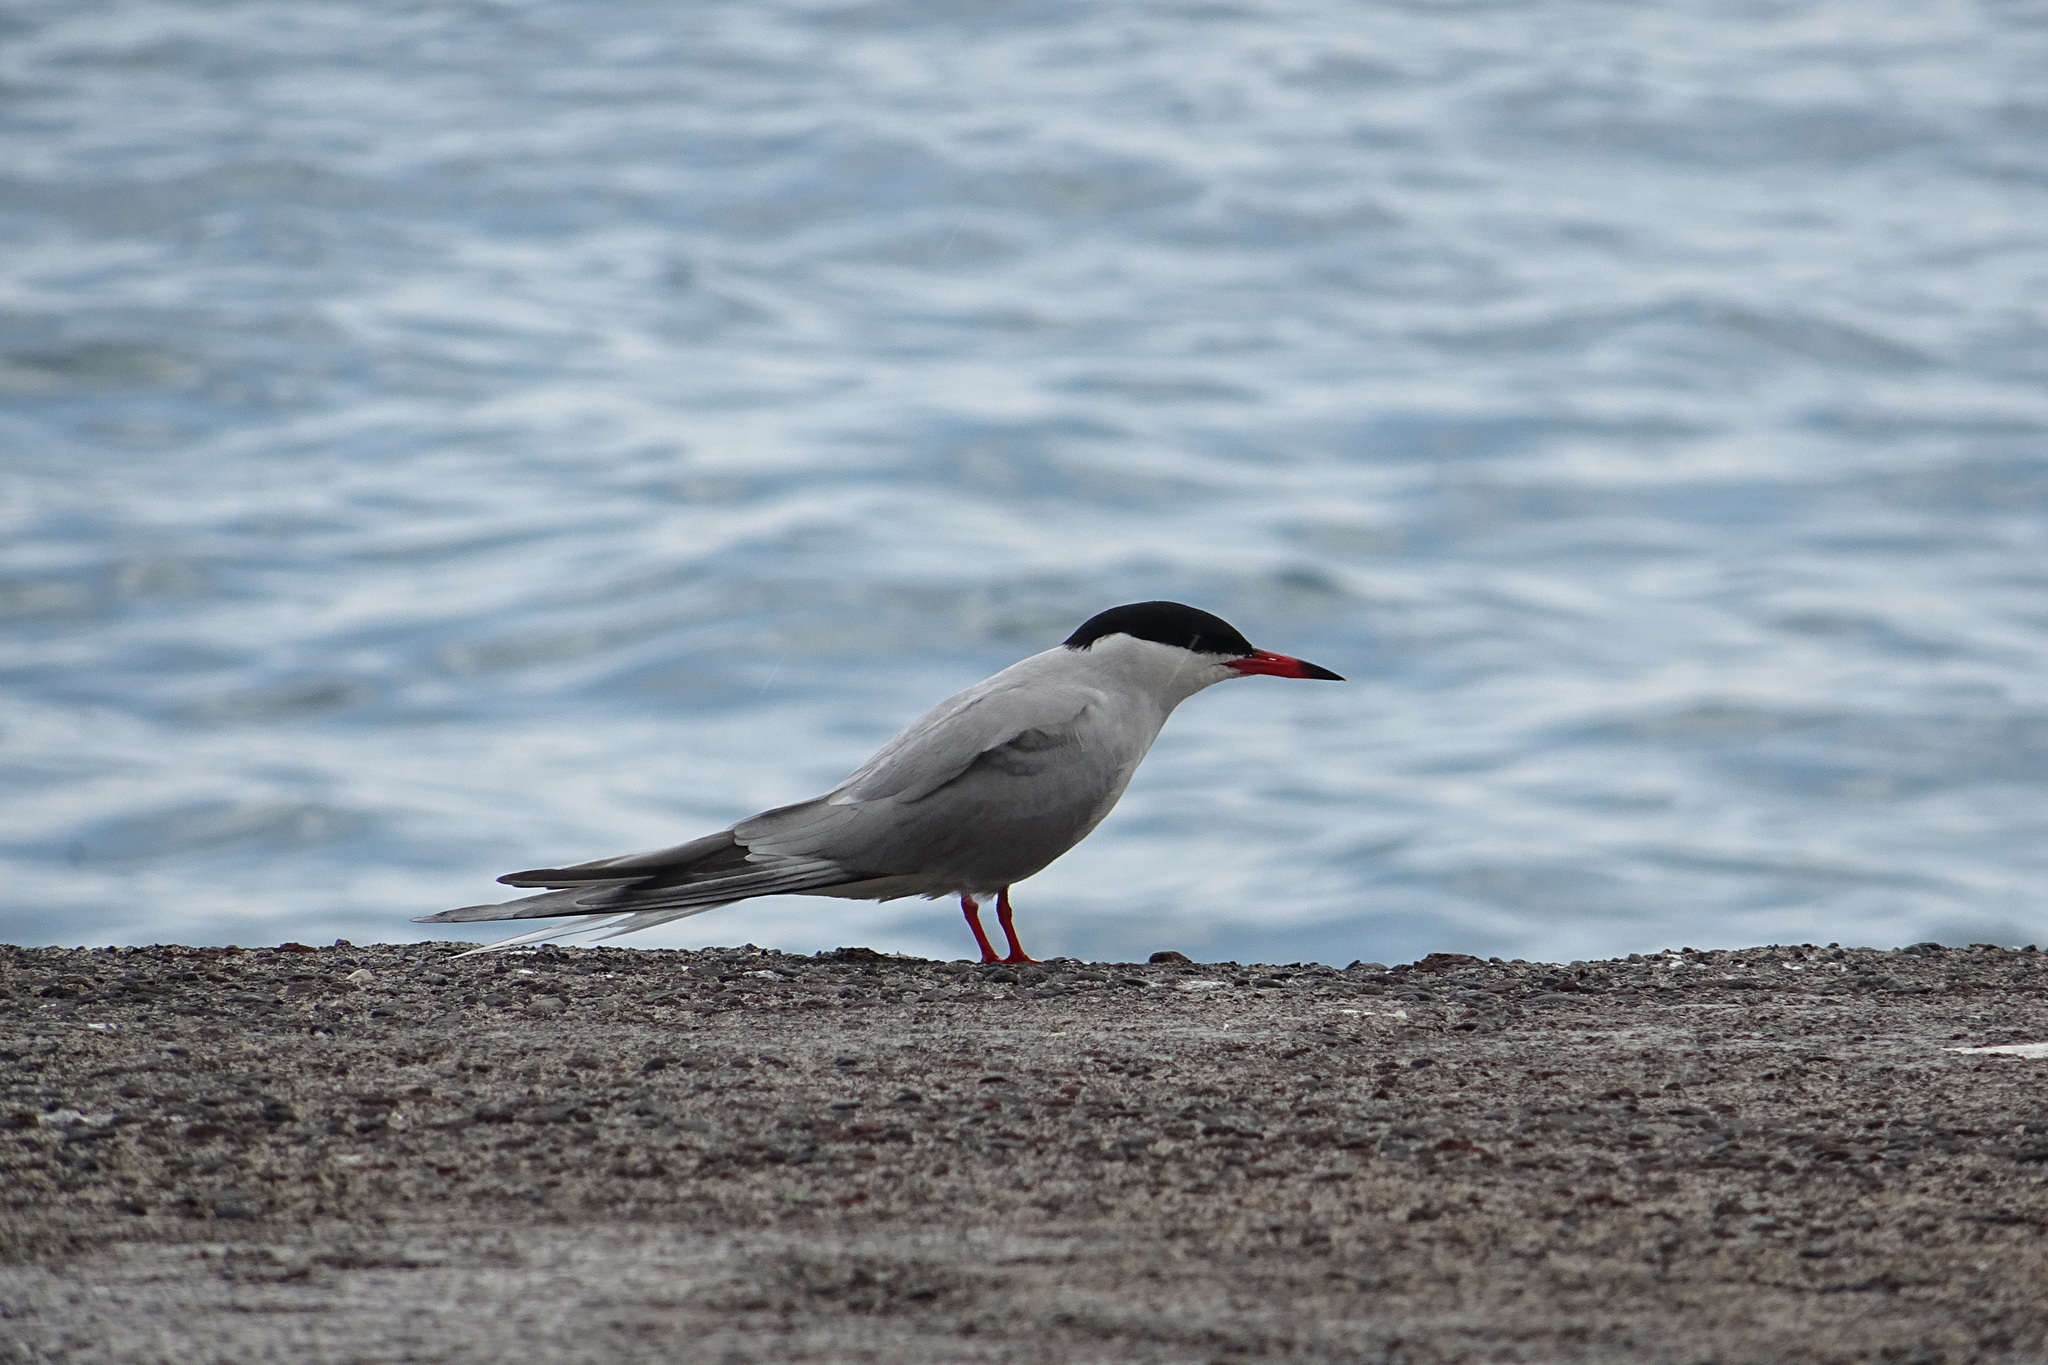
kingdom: Animalia
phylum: Chordata
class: Aves
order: Charadriiformes
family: Laridae
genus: Sterna
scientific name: Sterna hirundo
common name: Common tern
